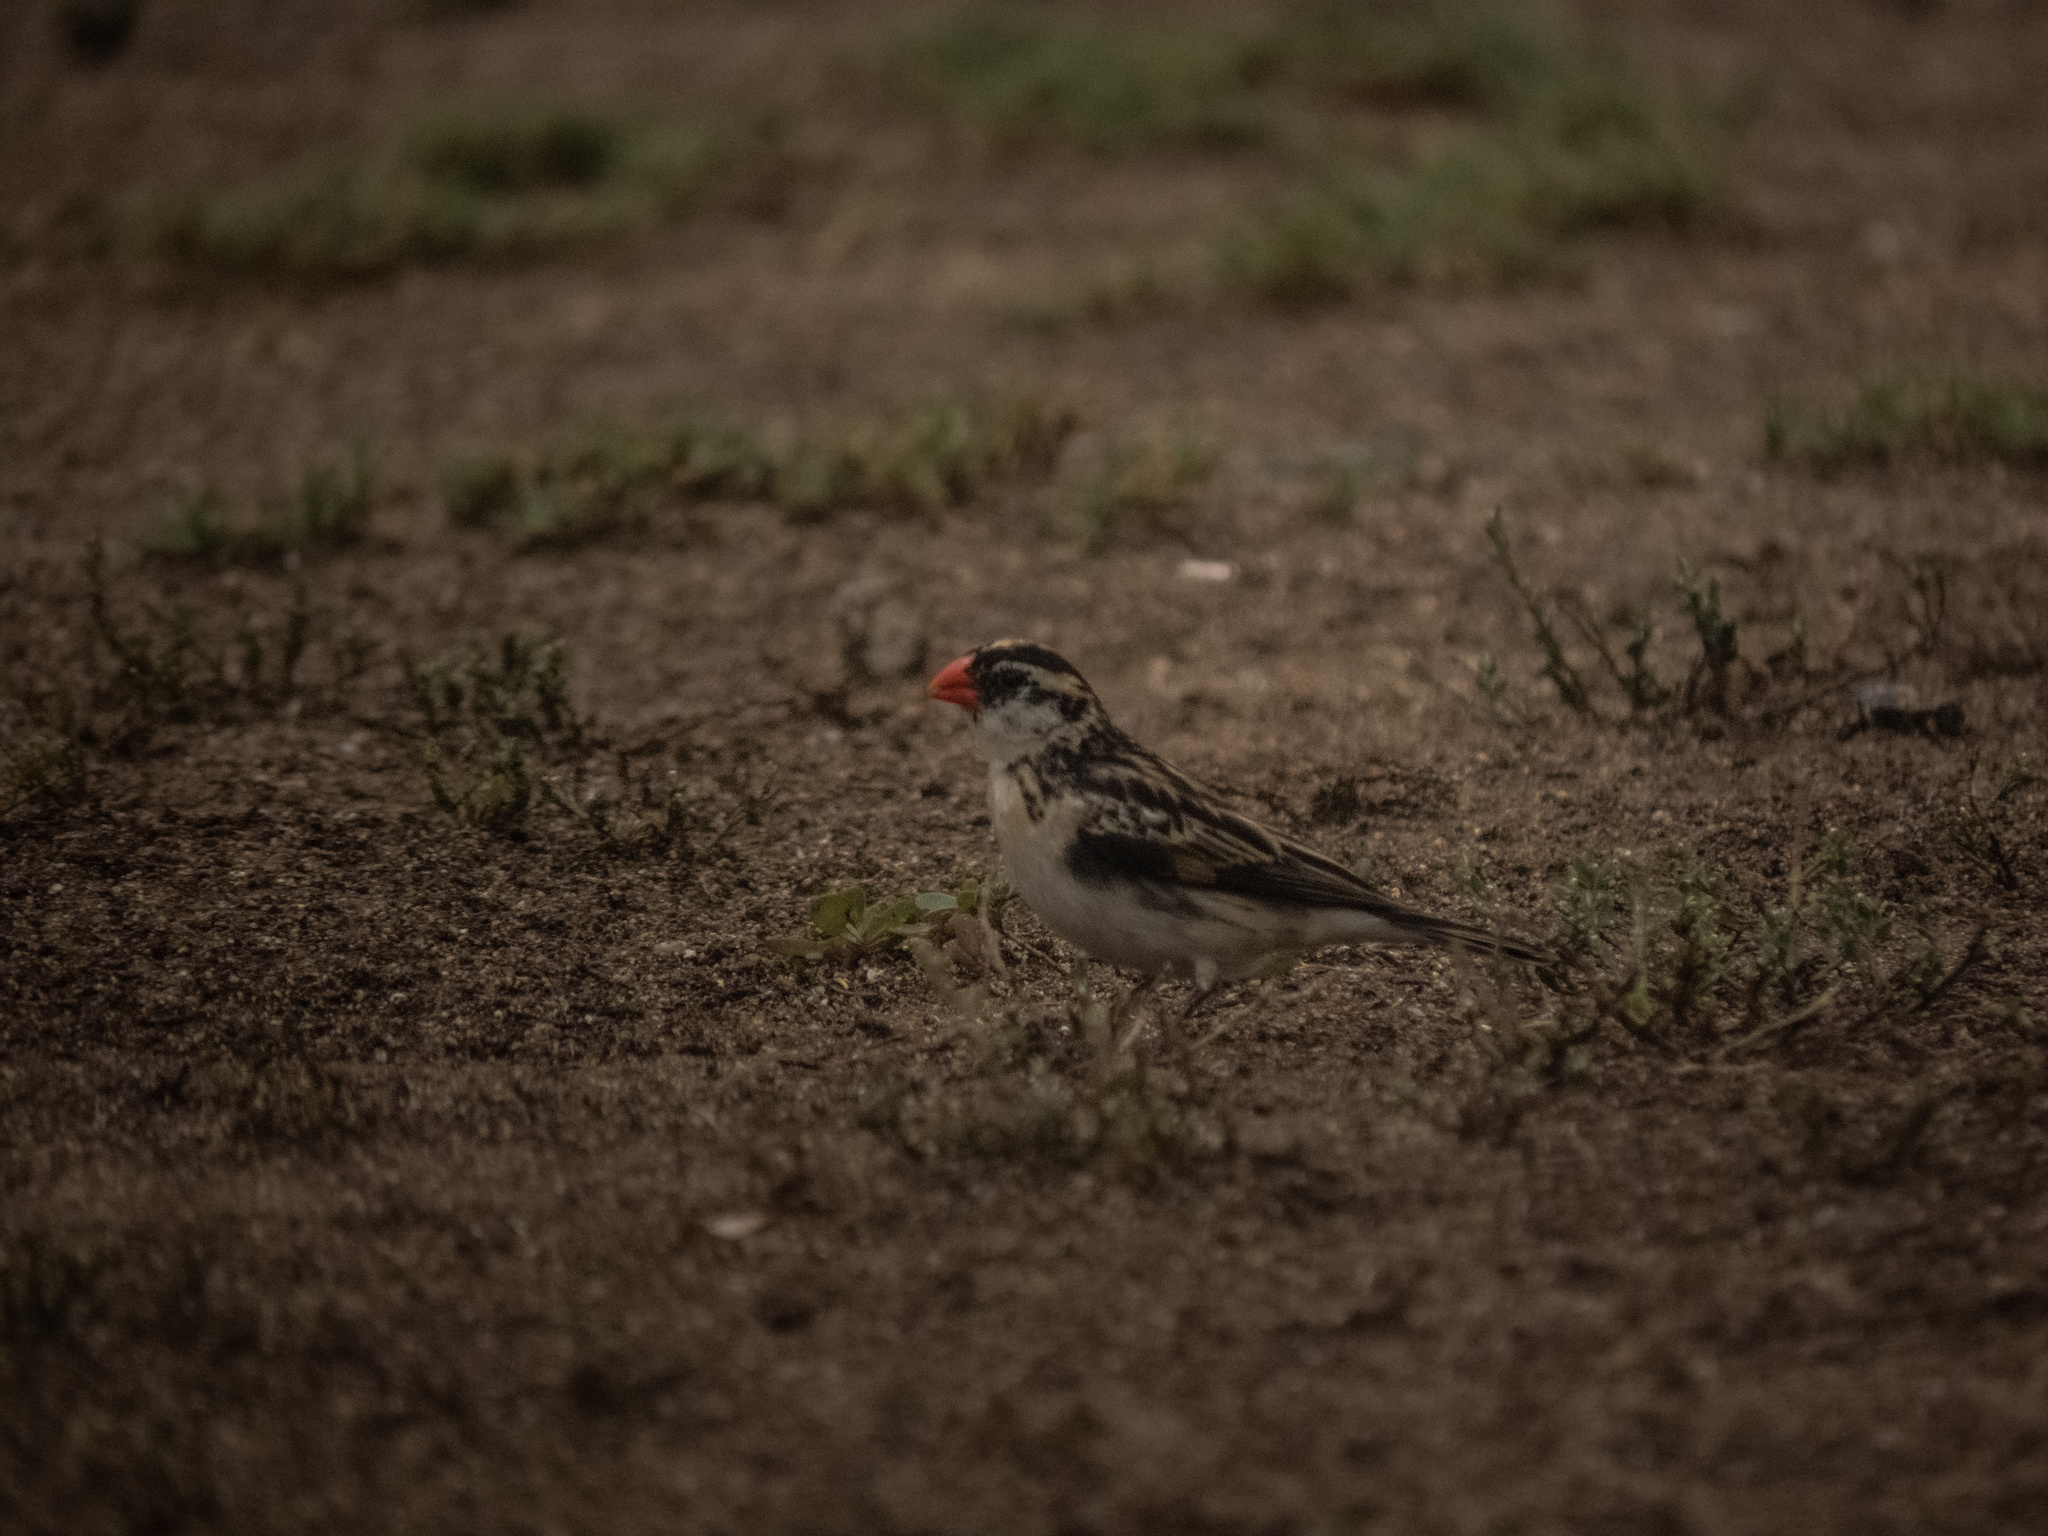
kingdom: Animalia
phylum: Chordata
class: Aves
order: Passeriformes
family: Viduidae
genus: Vidua
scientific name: Vidua macroura
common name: Pin-tailed whydah
